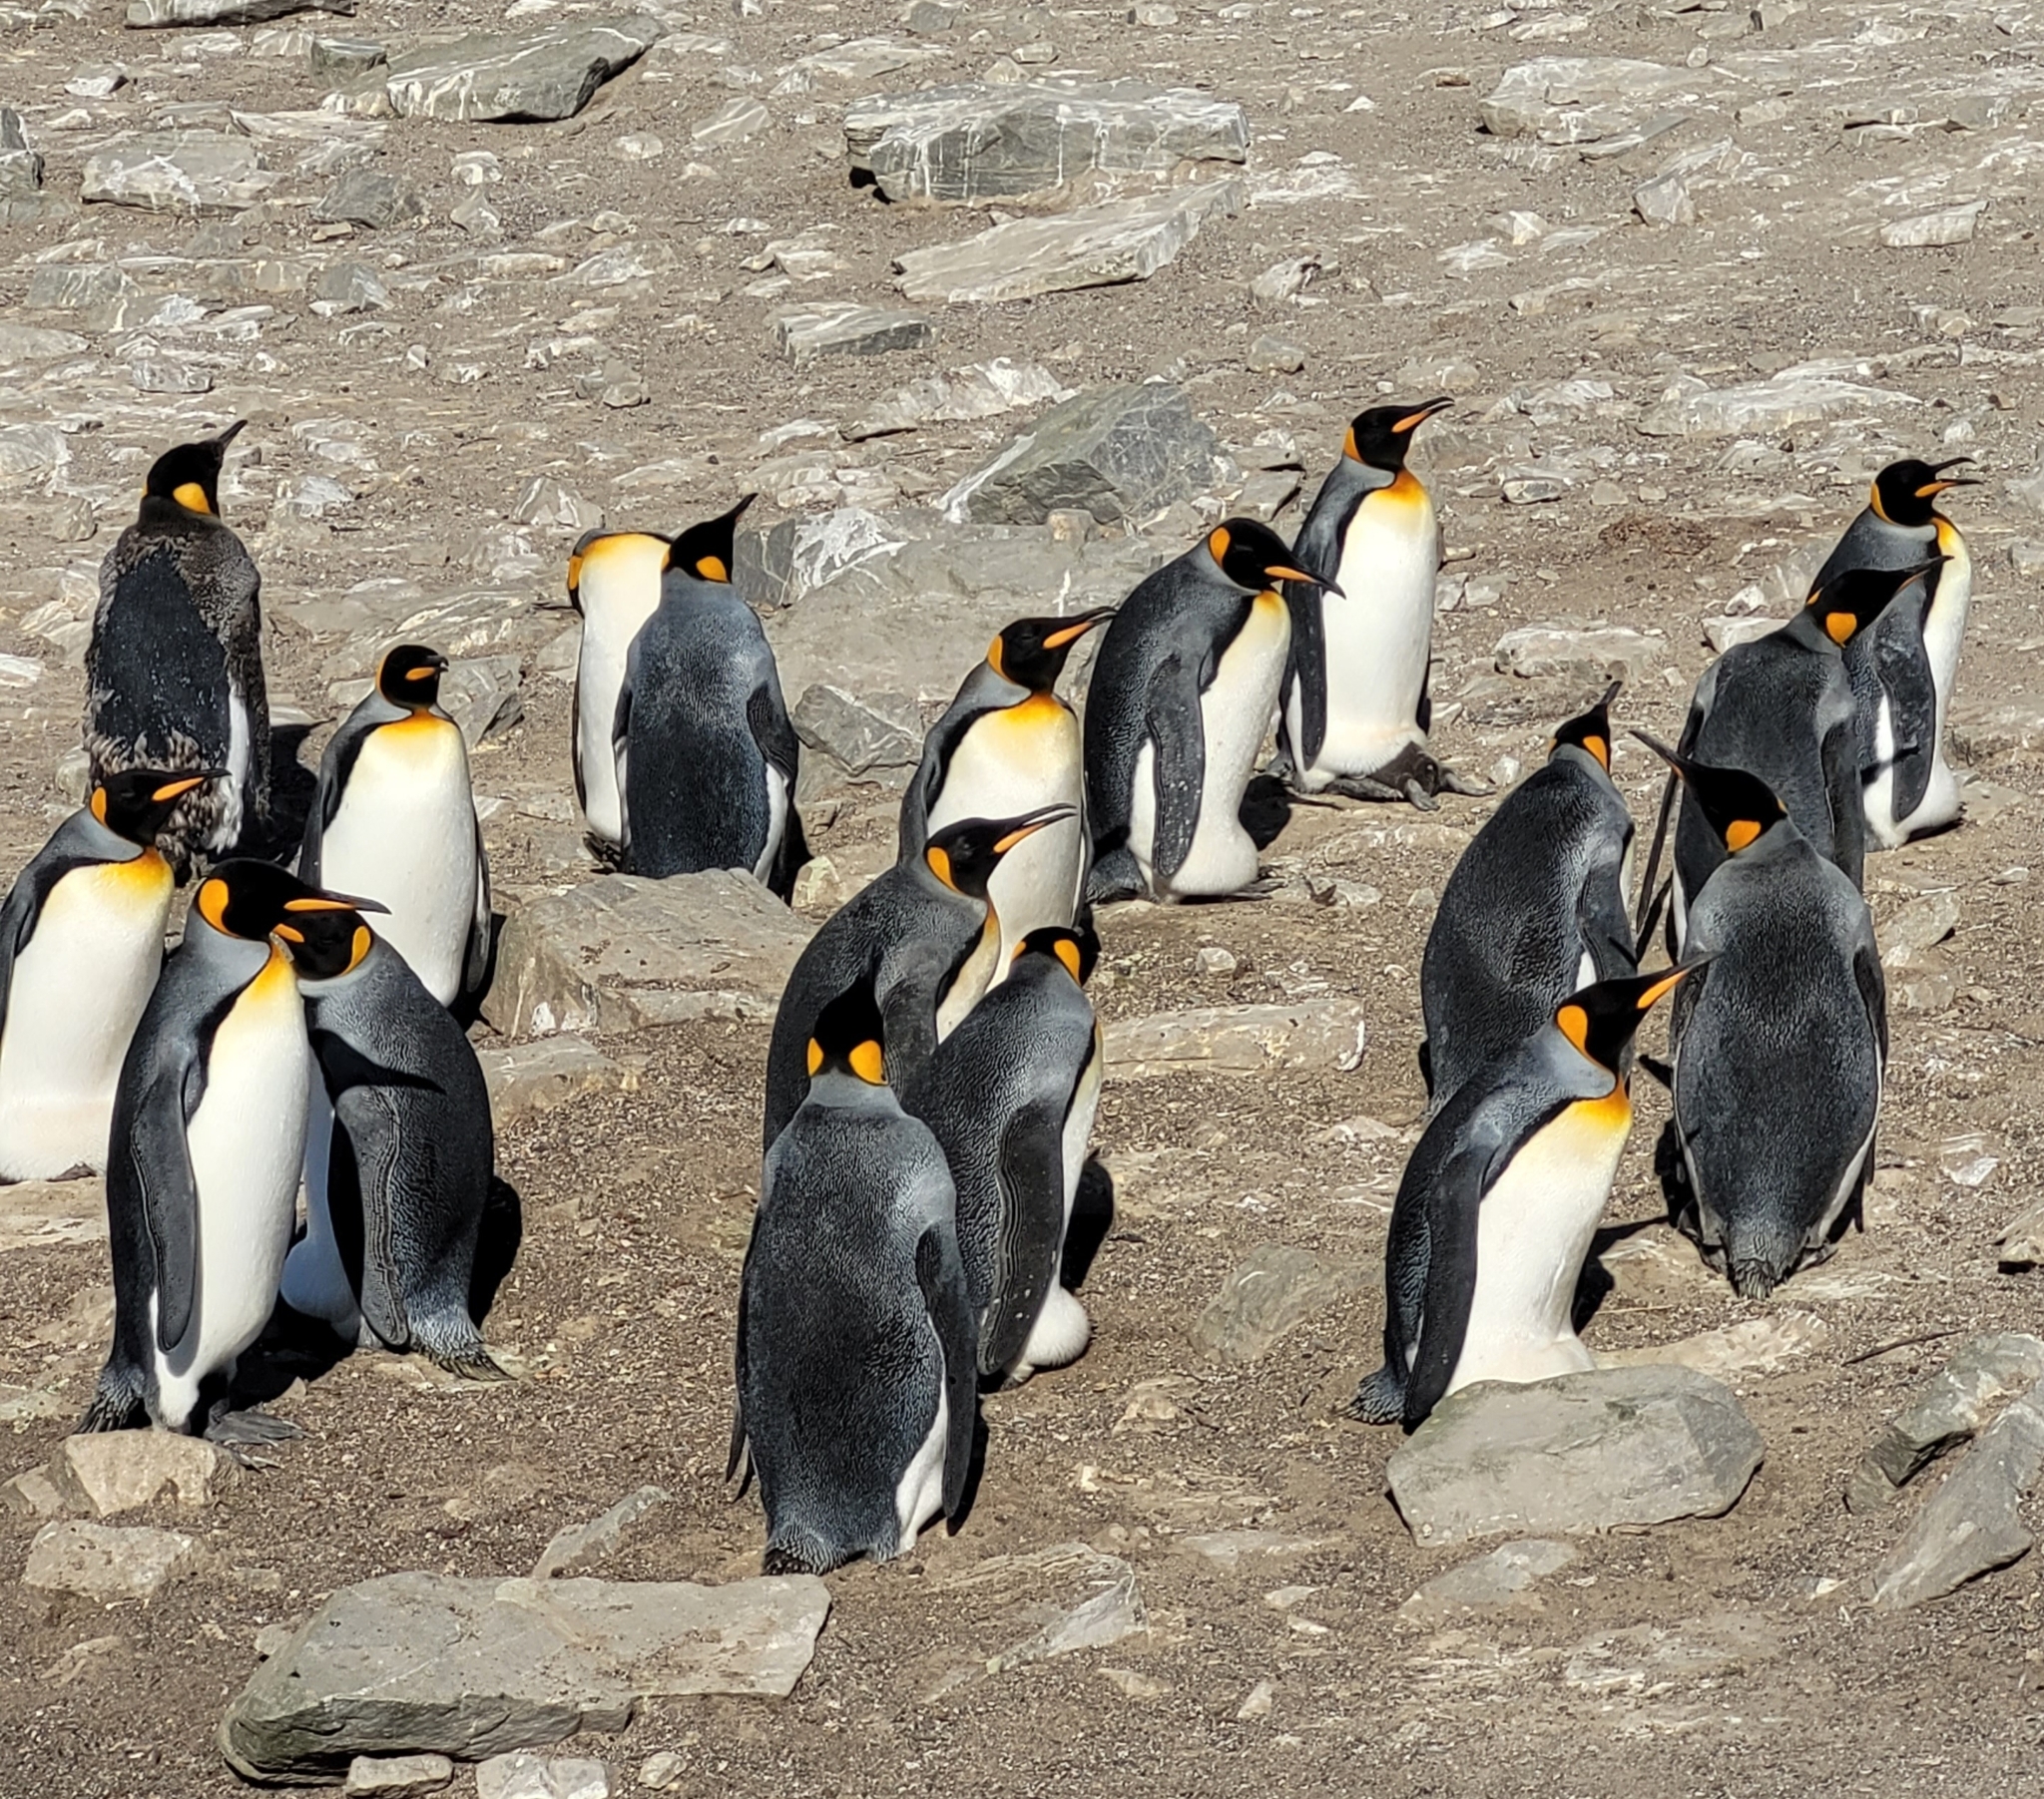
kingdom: Animalia
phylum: Chordata
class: Aves
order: Sphenisciformes
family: Spheniscidae
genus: Aptenodytes
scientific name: Aptenodytes patagonicus
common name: King penguin
